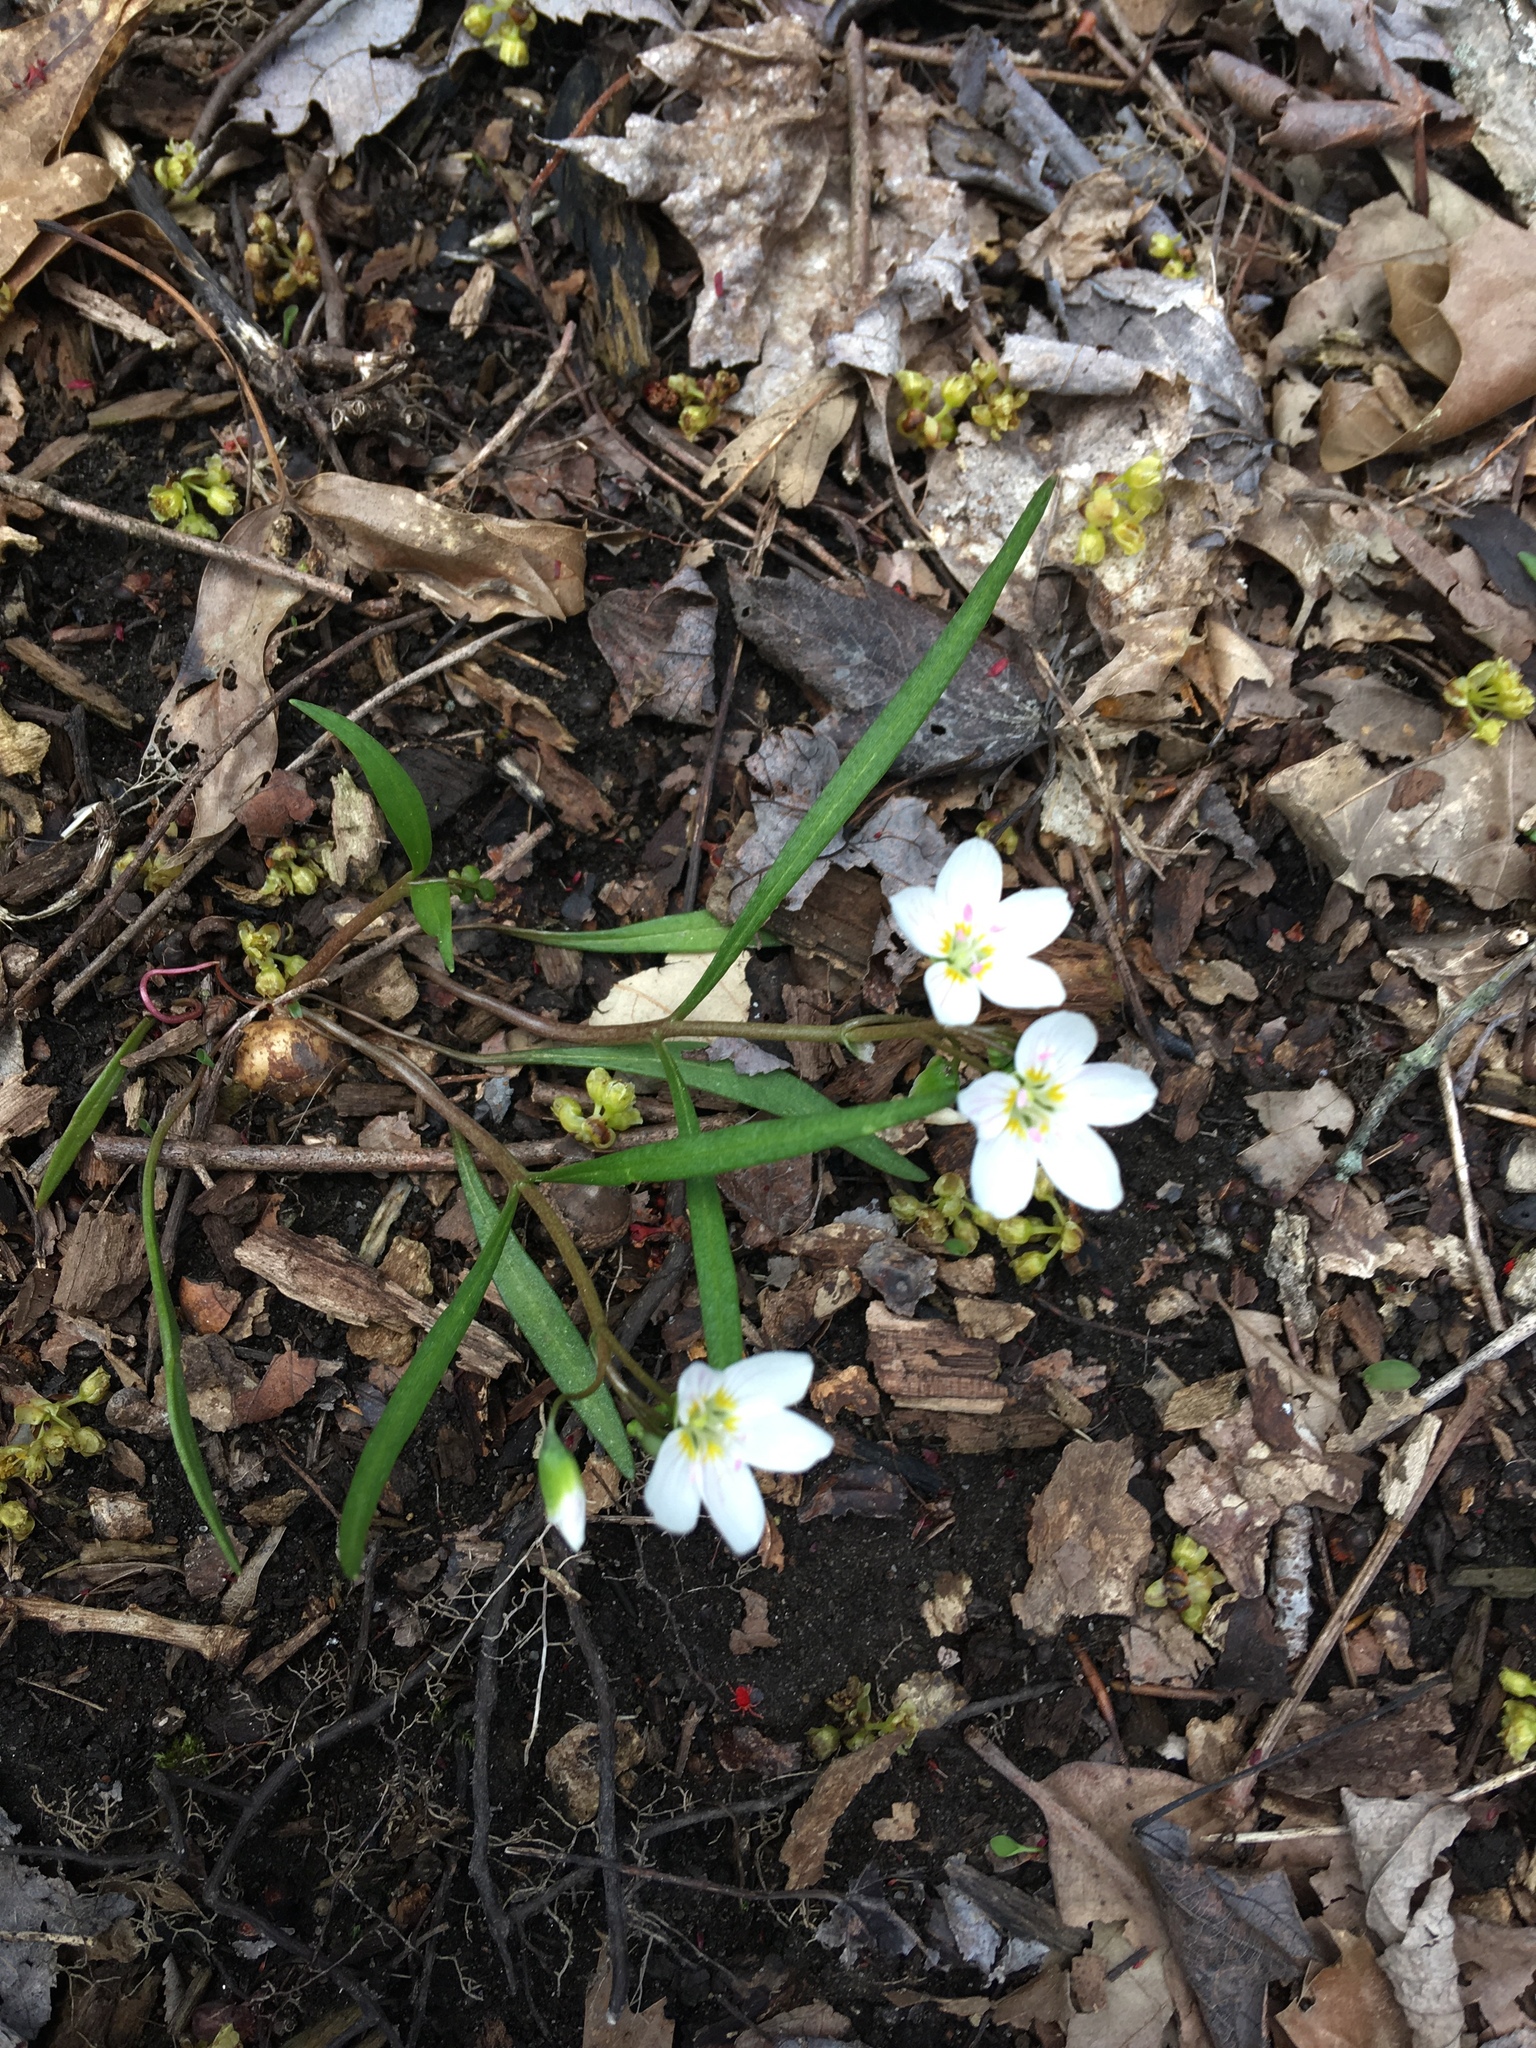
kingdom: Plantae
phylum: Tracheophyta
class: Magnoliopsida
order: Caryophyllales
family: Montiaceae
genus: Claytonia
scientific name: Claytonia virginica
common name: Virginia springbeauty
